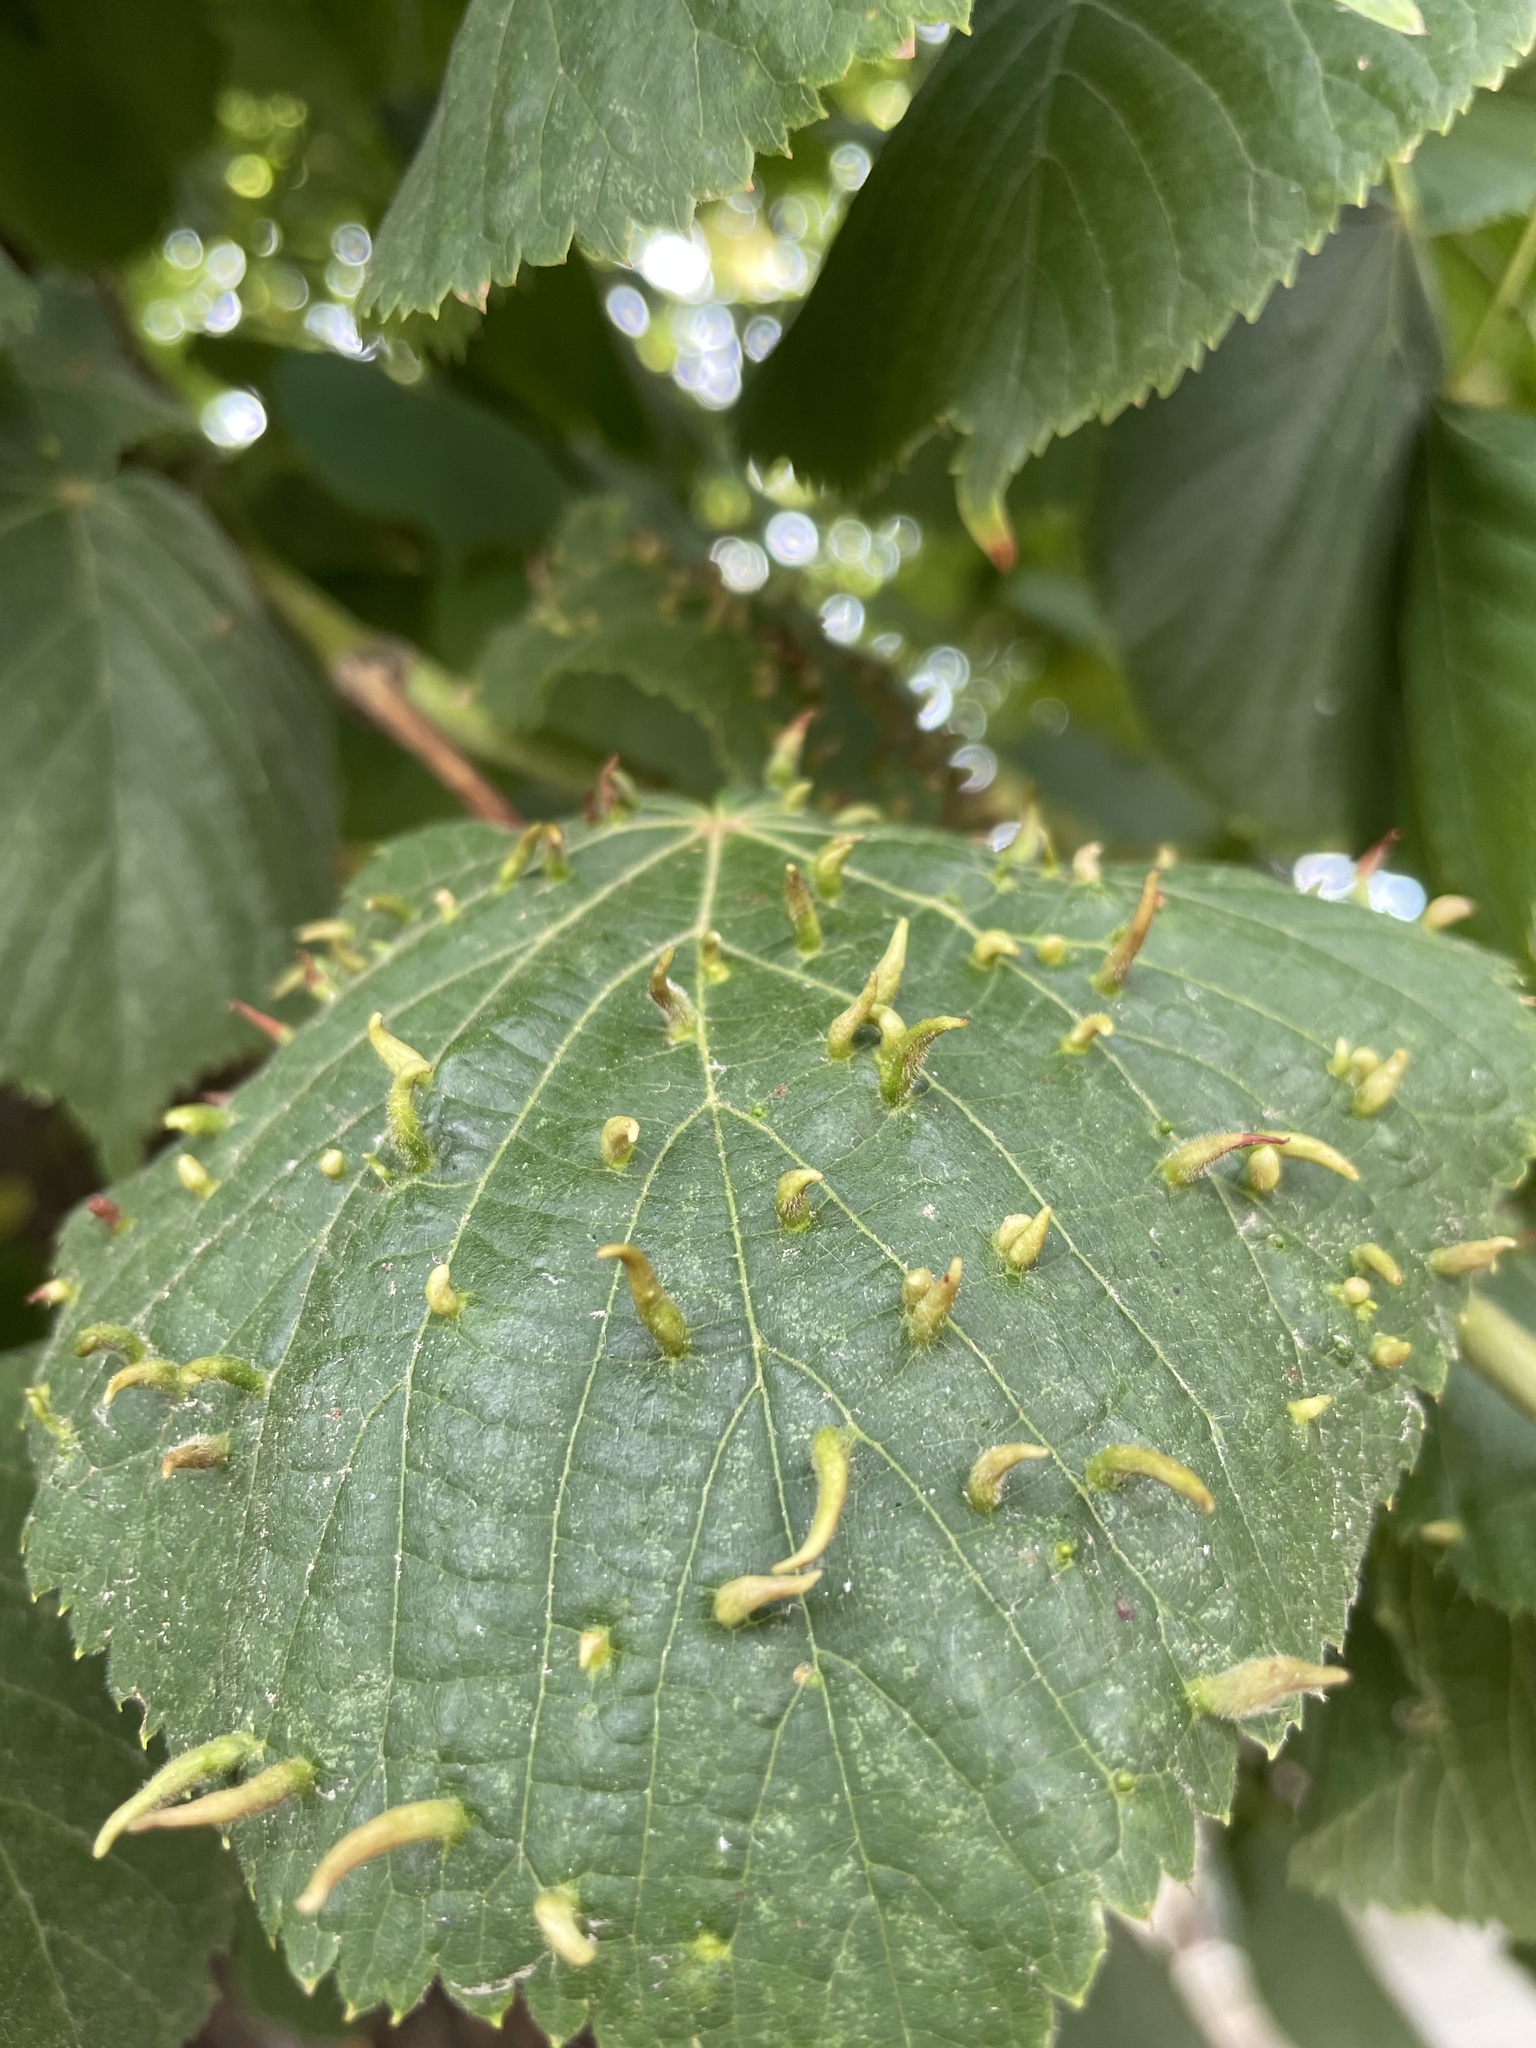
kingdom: Animalia
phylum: Arthropoda
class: Arachnida
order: Trombidiformes
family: Eriophyidae
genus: Eriophyes
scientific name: Eriophyes tiliae
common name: Red nail gall mite
